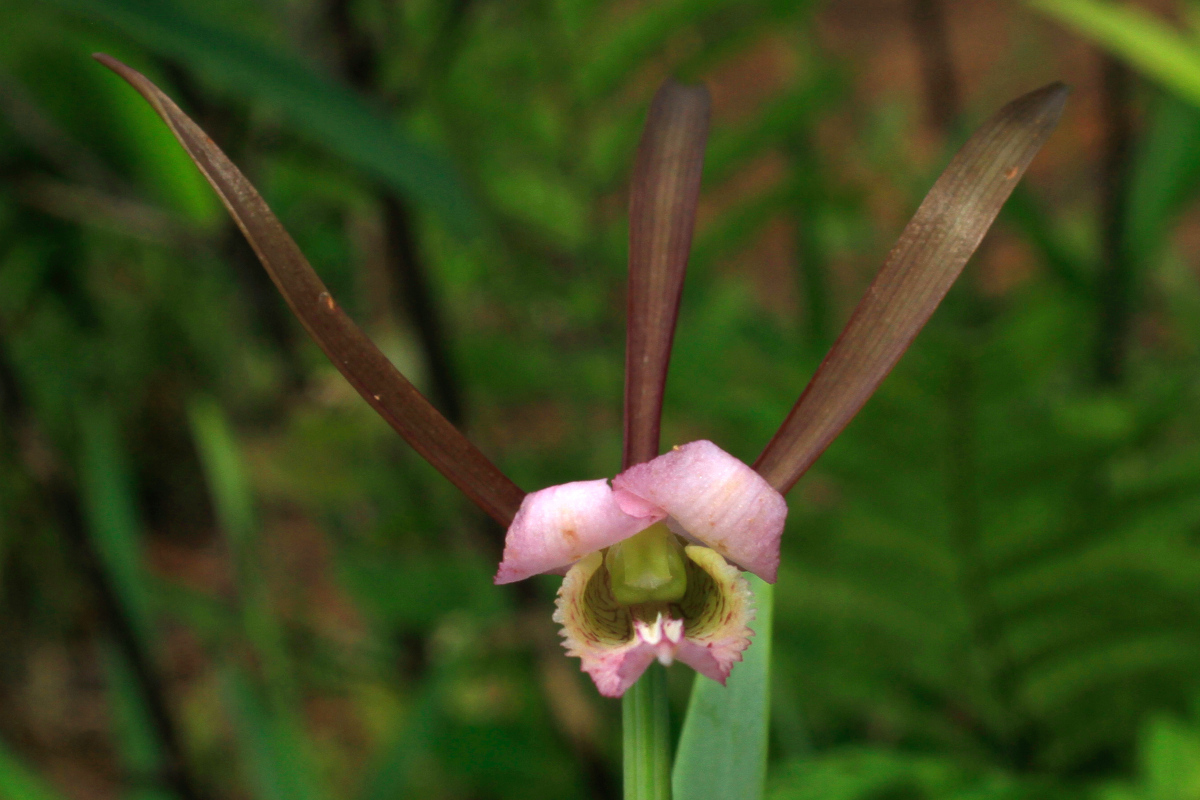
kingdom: Plantae
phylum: Tracheophyta
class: Liliopsida
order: Asparagales
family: Orchidaceae
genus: Cleistesiopsis
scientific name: Cleistesiopsis divaricata
